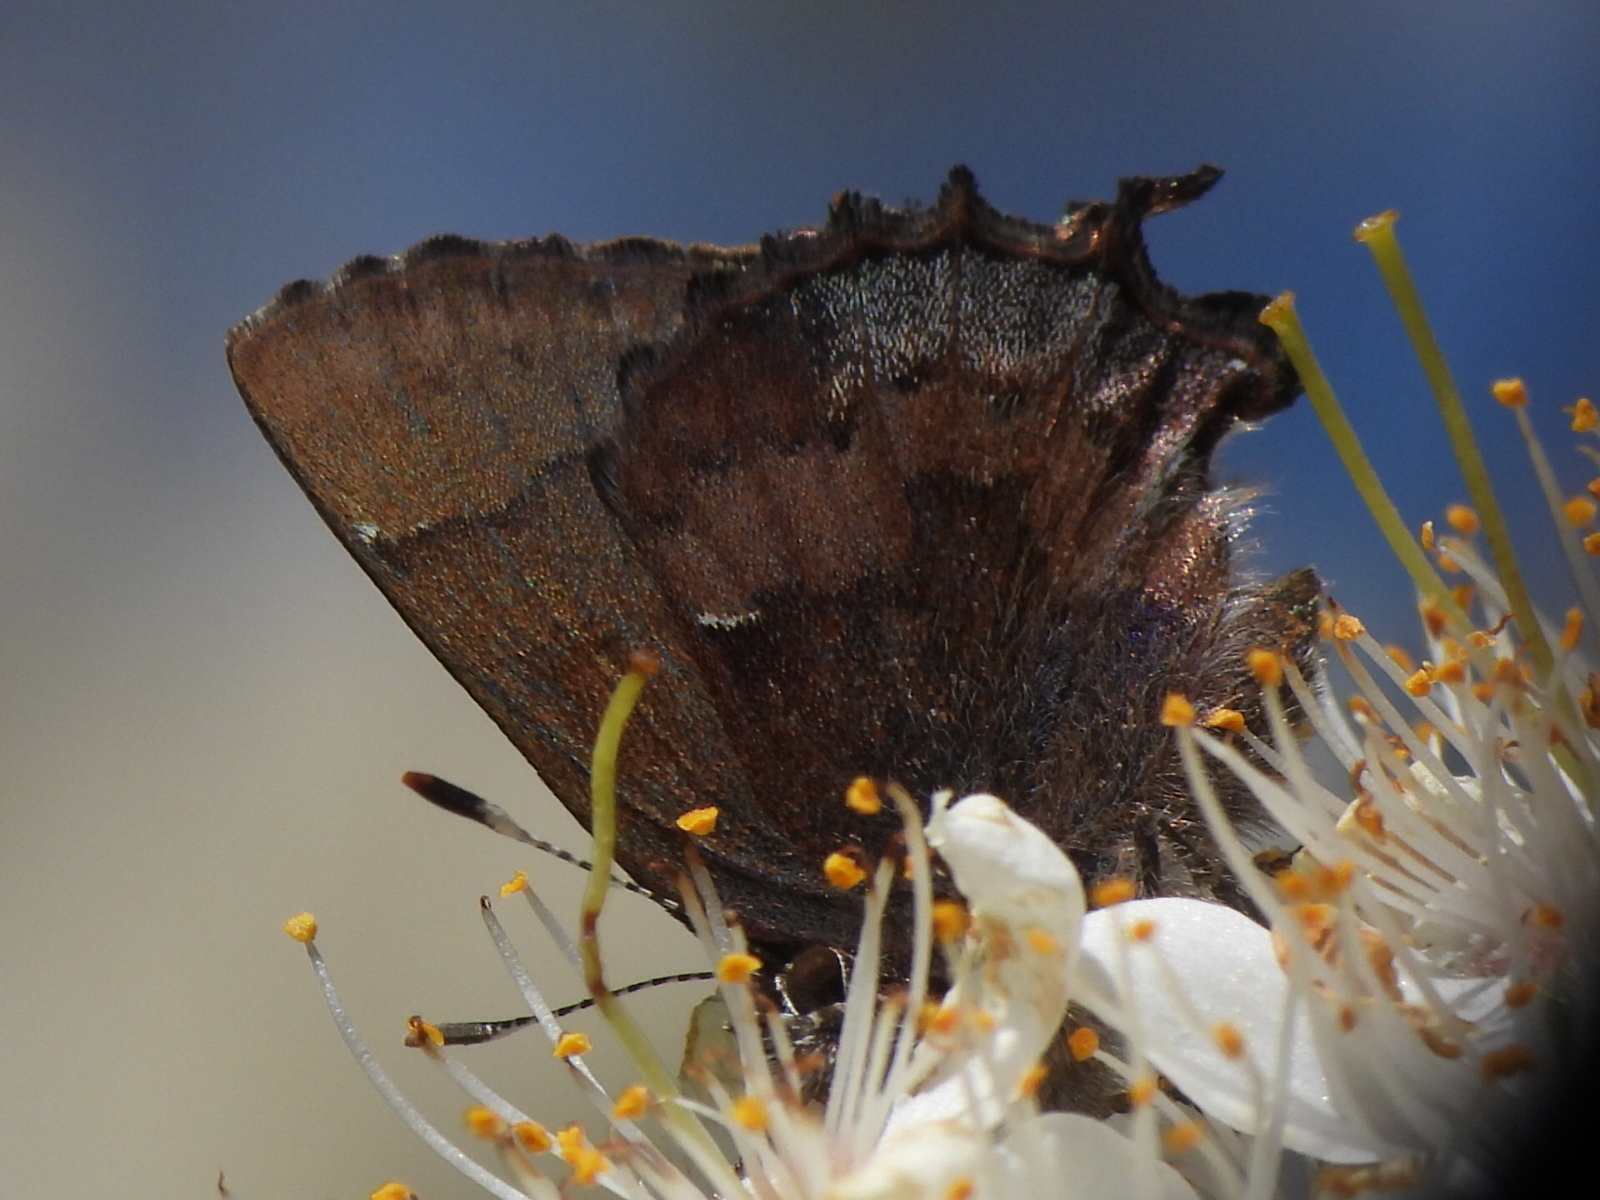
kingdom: Animalia
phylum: Arthropoda
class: Insecta
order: Lepidoptera
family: Lycaenidae
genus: Incisalia
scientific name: Incisalia henrici
